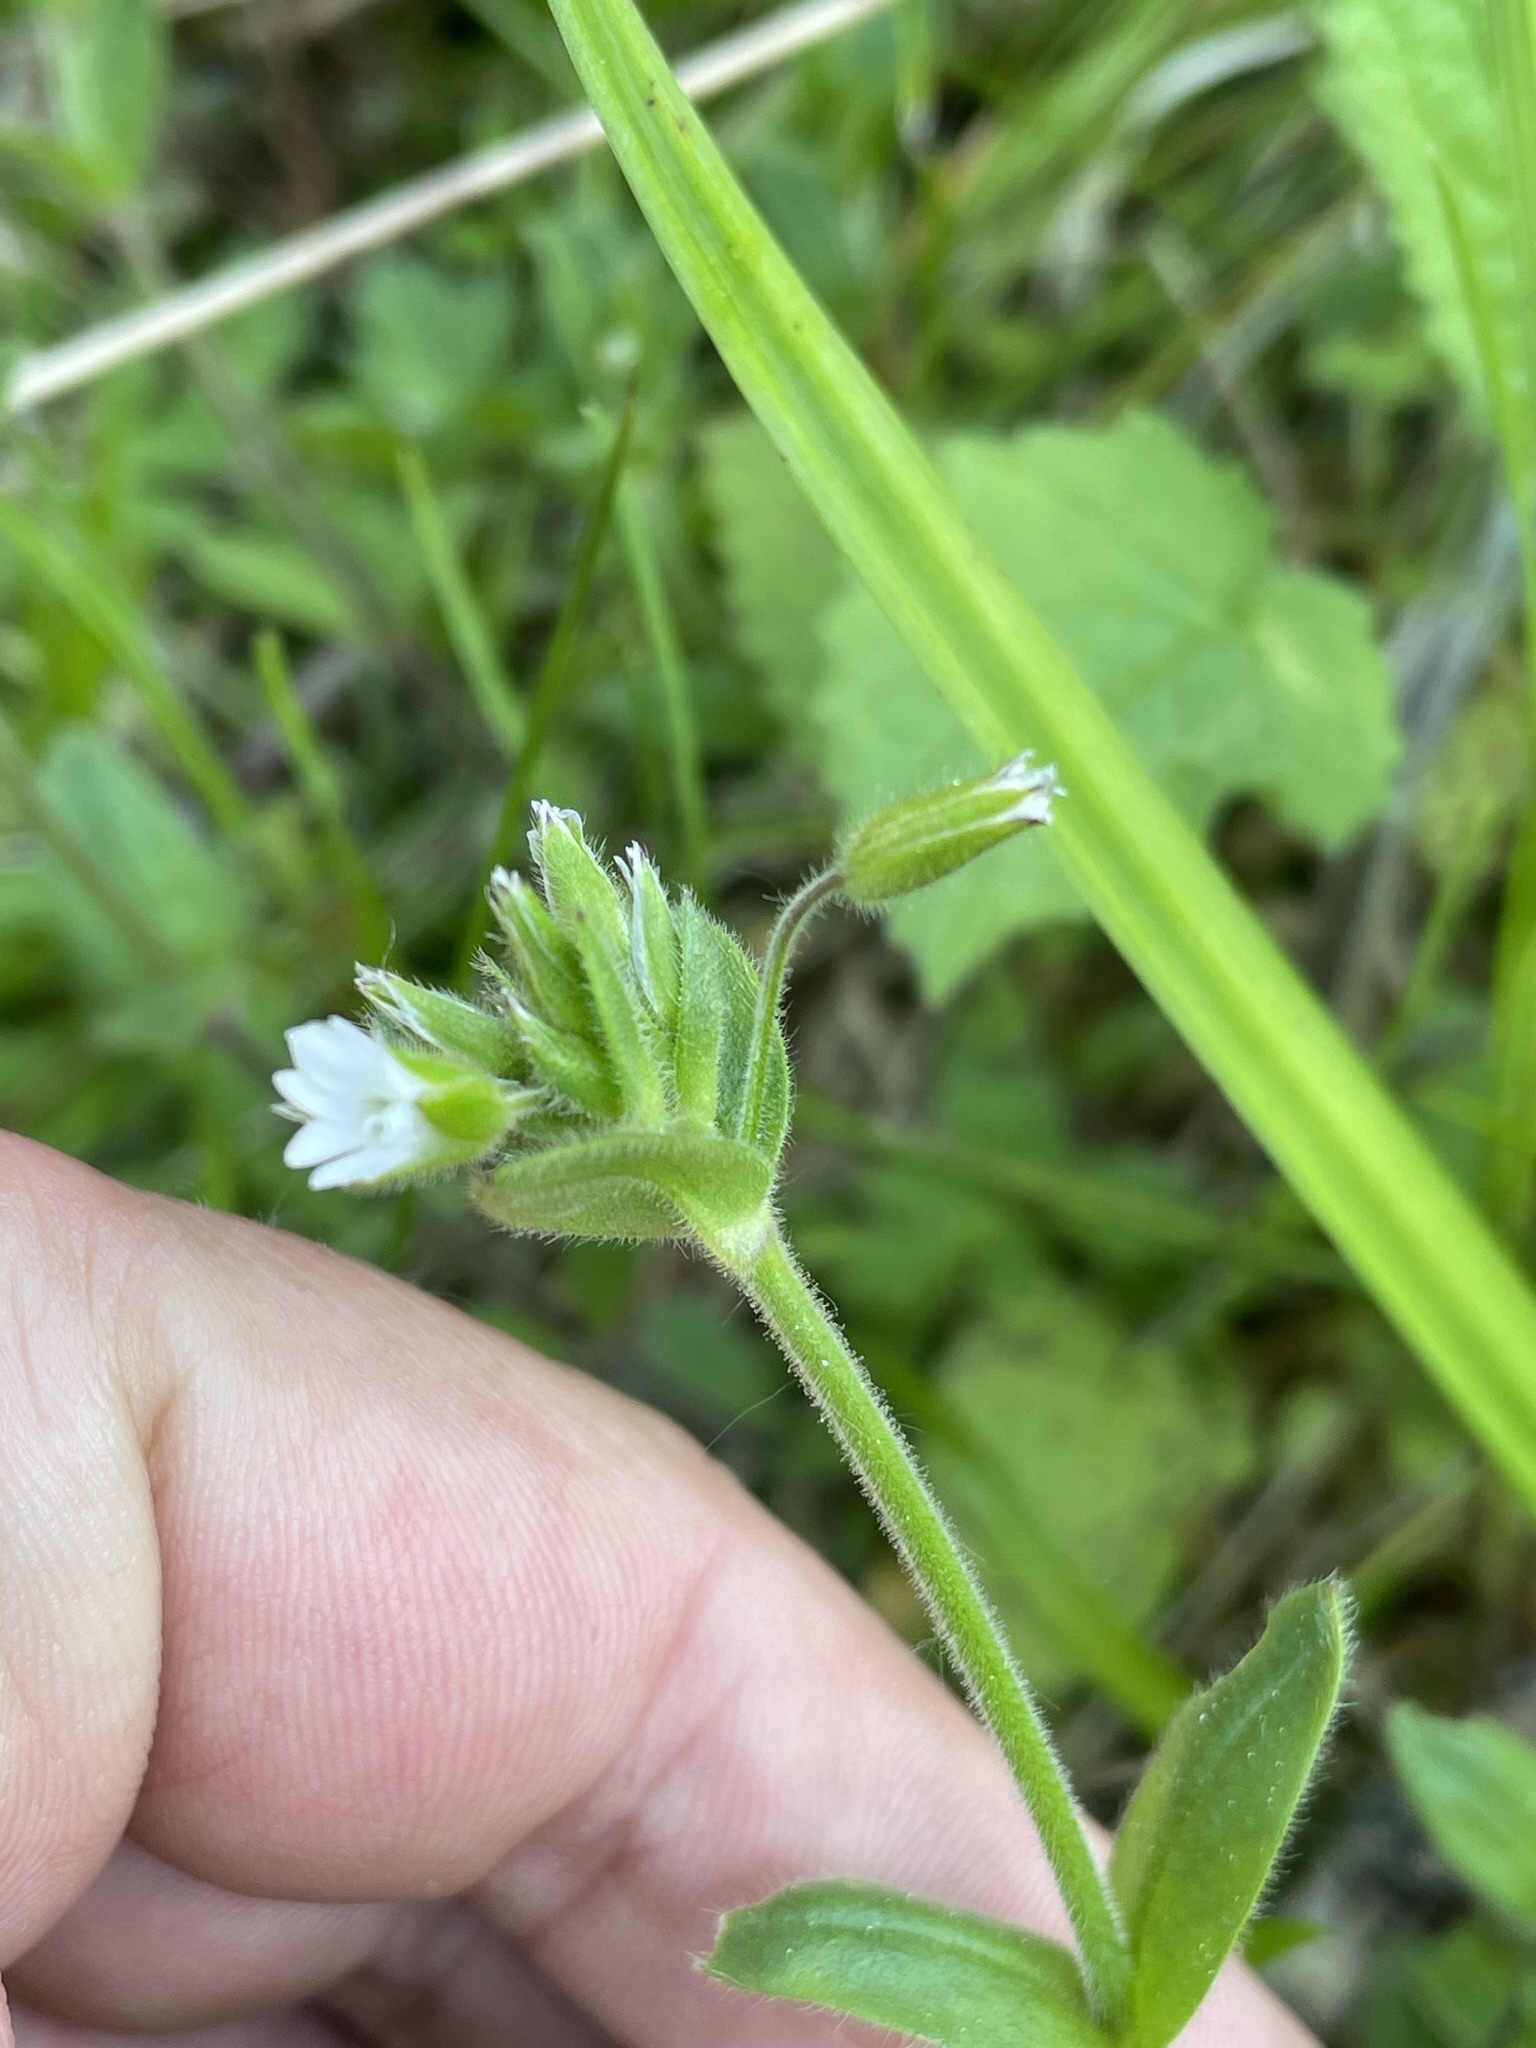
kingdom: Plantae
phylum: Tracheophyta
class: Magnoliopsida
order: Caryophyllales
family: Caryophyllaceae
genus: Cerastium
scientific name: Cerastium holosteoides
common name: Big chickweed
